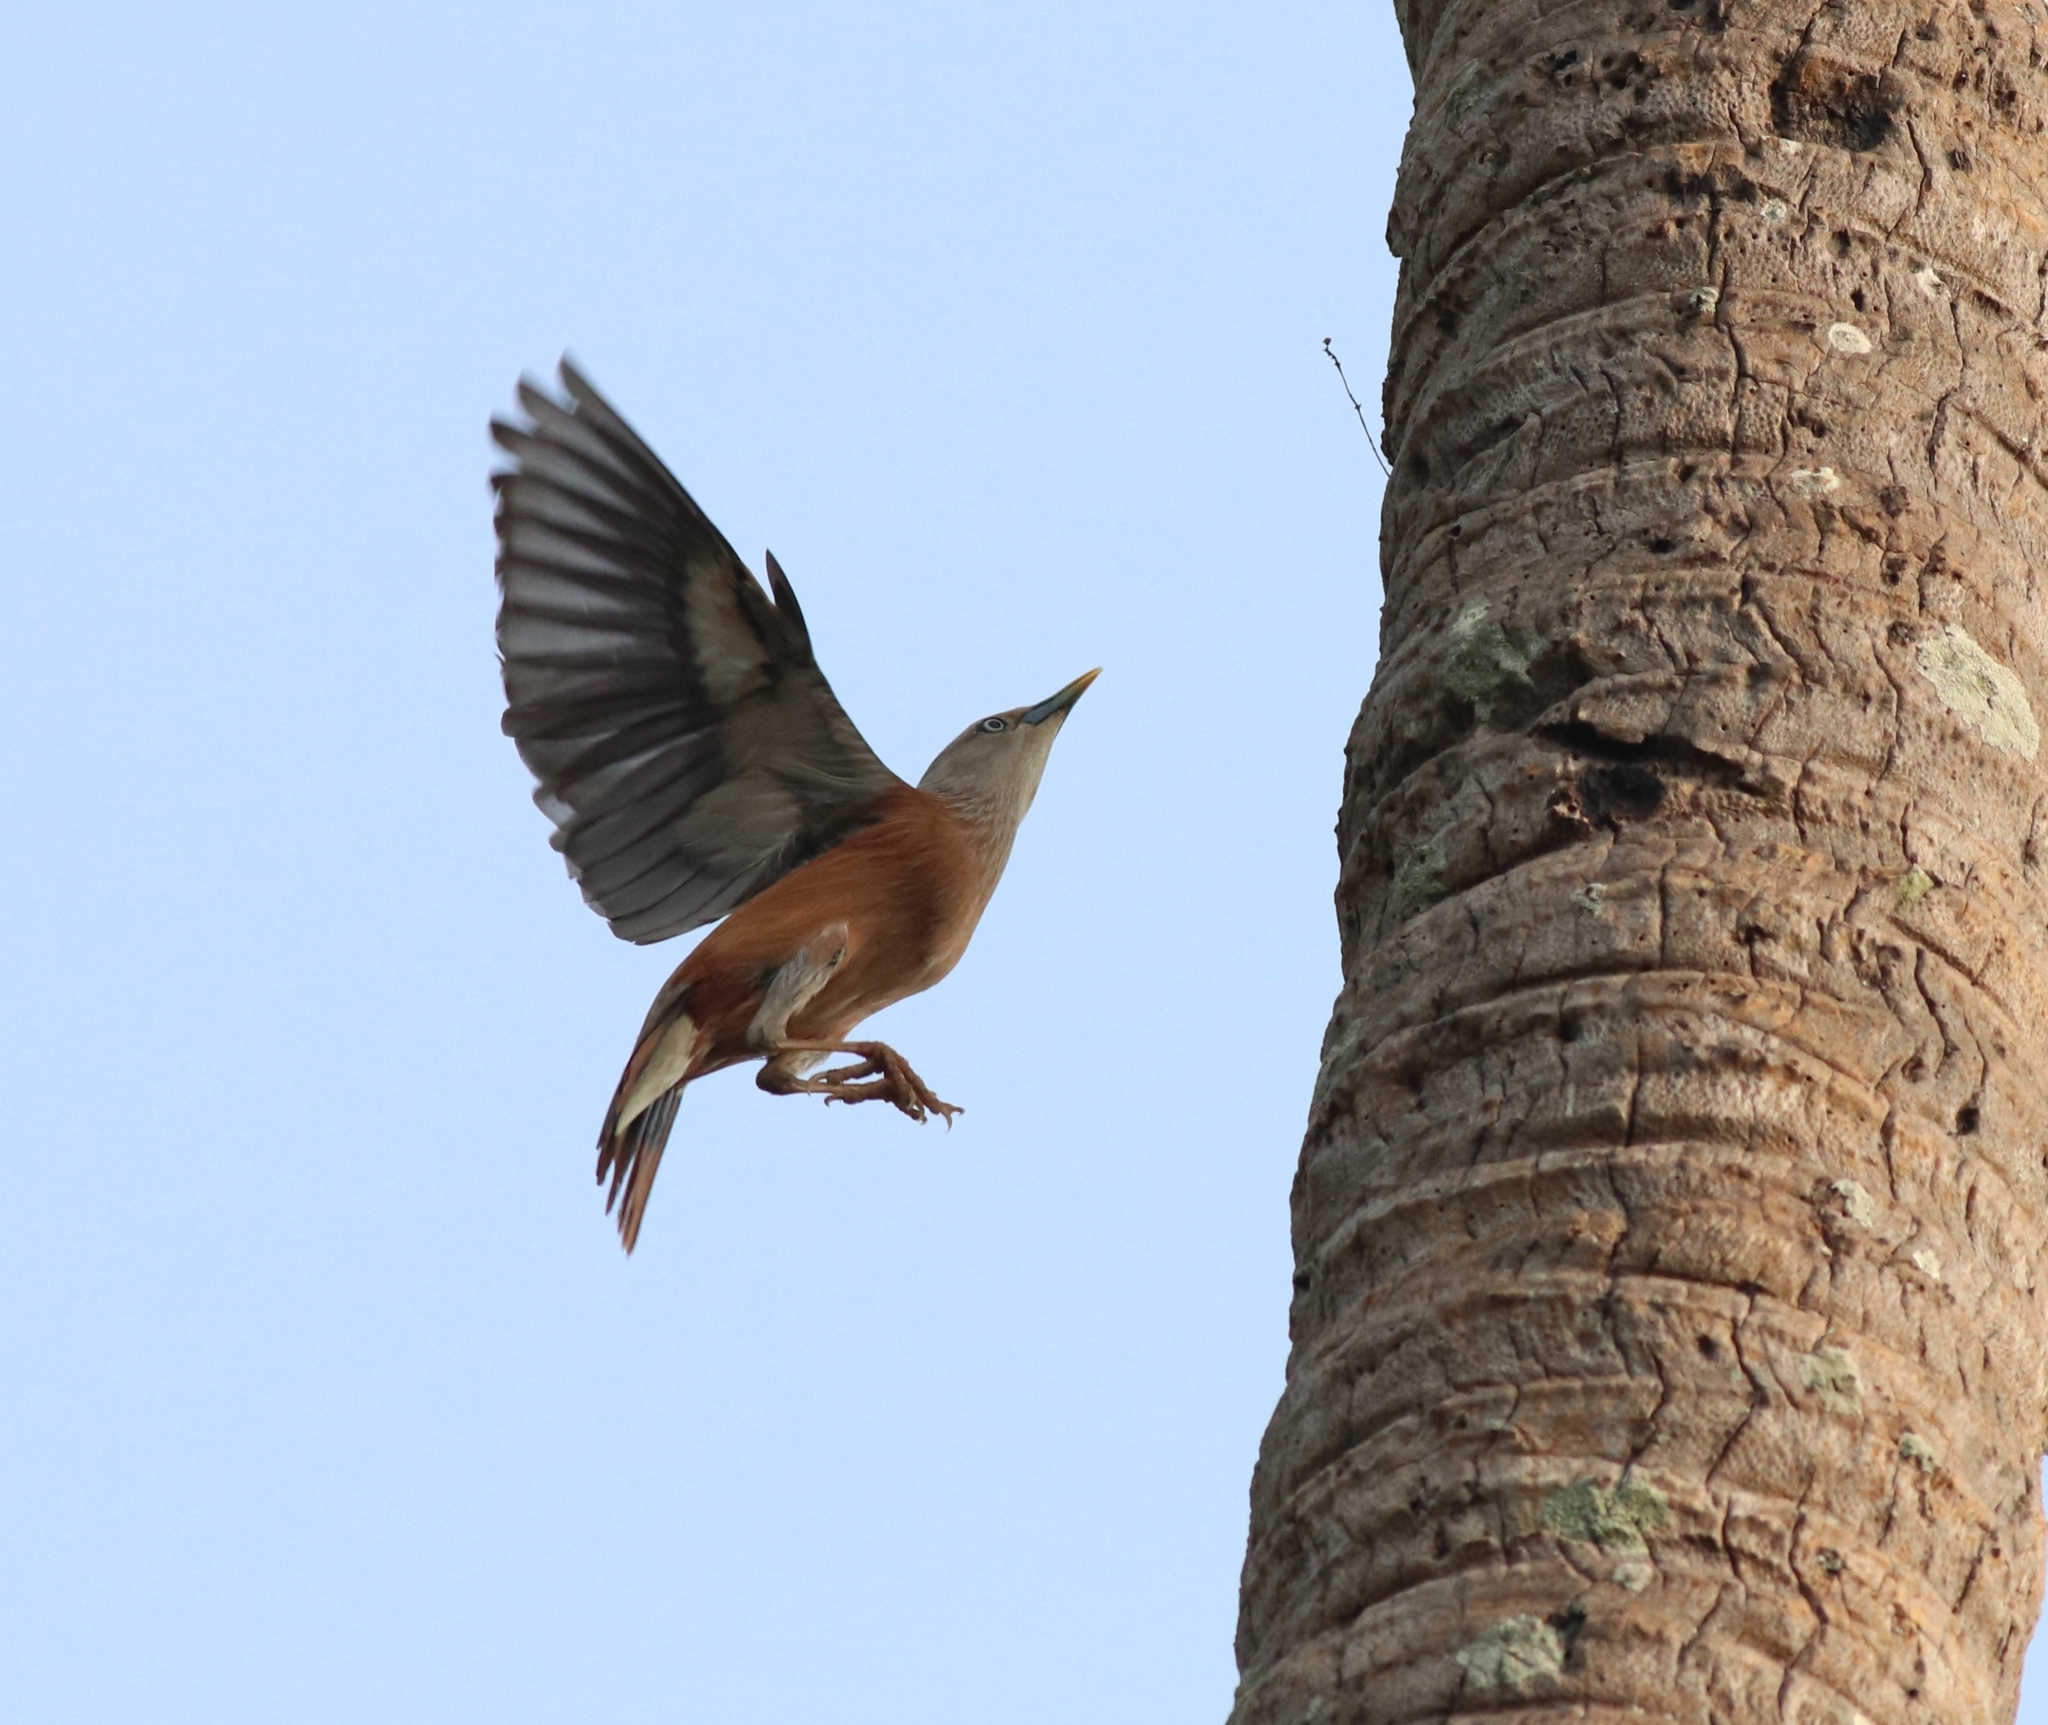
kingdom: Animalia
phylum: Chordata
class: Aves
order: Passeriformes
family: Sturnidae
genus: Sturnia
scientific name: Sturnia blythii
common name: Malabar starling
